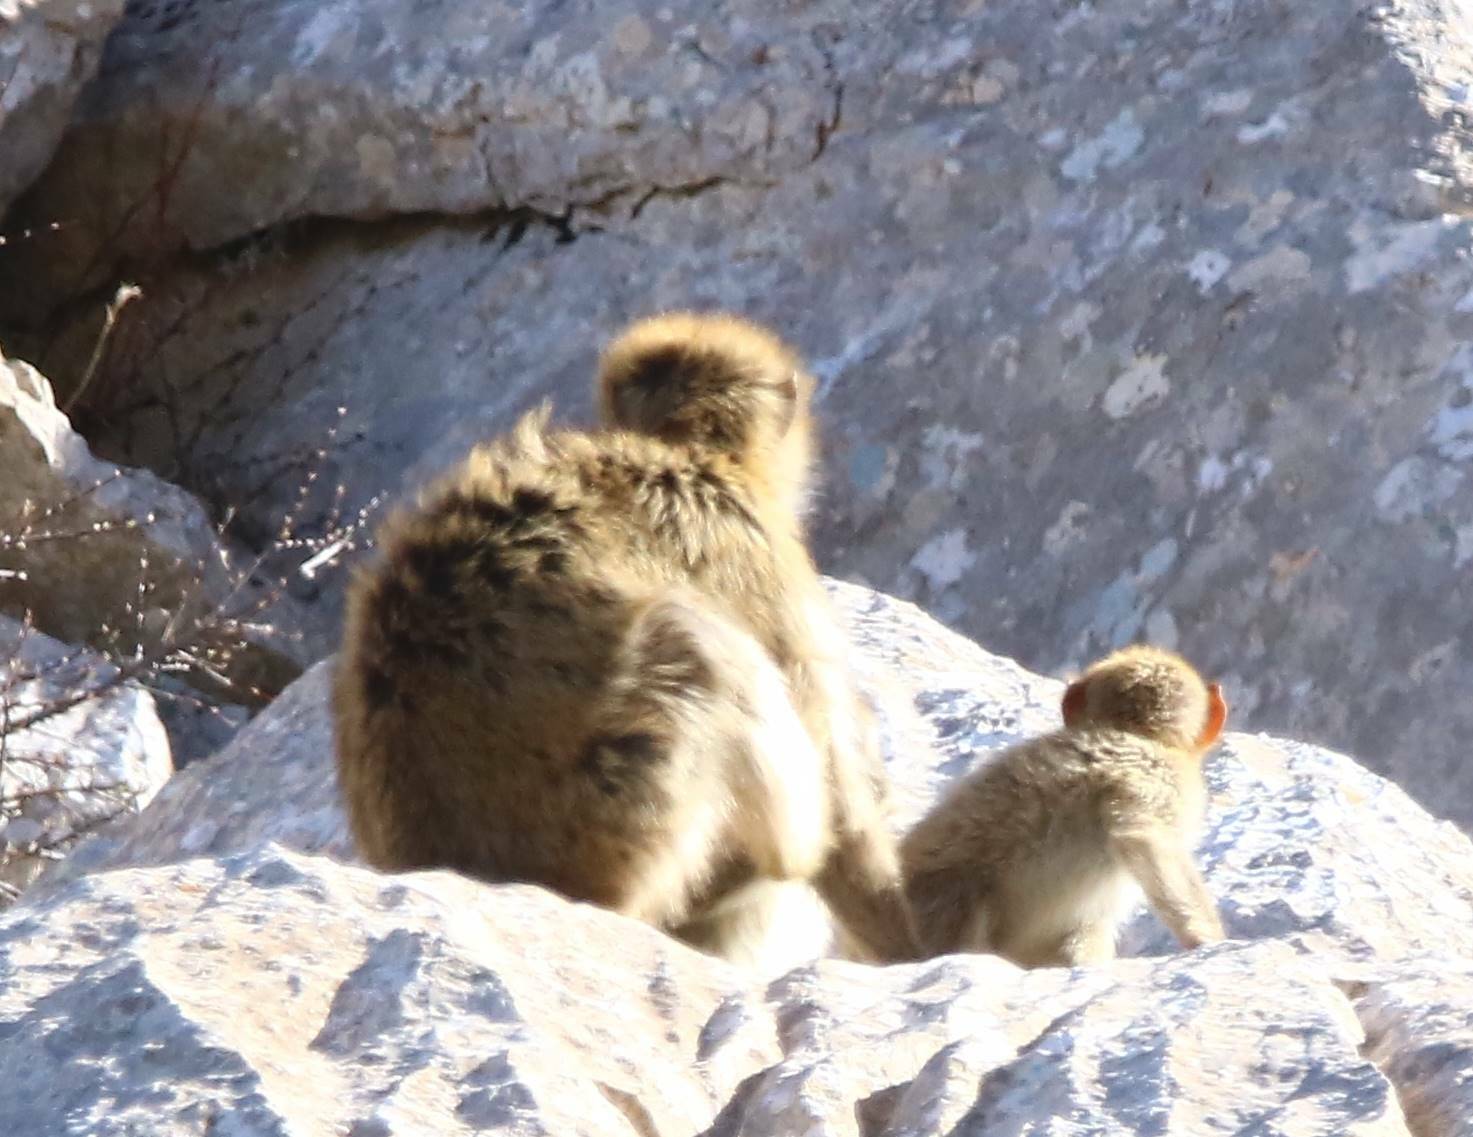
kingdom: Animalia
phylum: Chordata
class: Mammalia
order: Primates
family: Cercopithecidae
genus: Macaca
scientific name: Macaca sylvanus
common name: Barbary macaque
